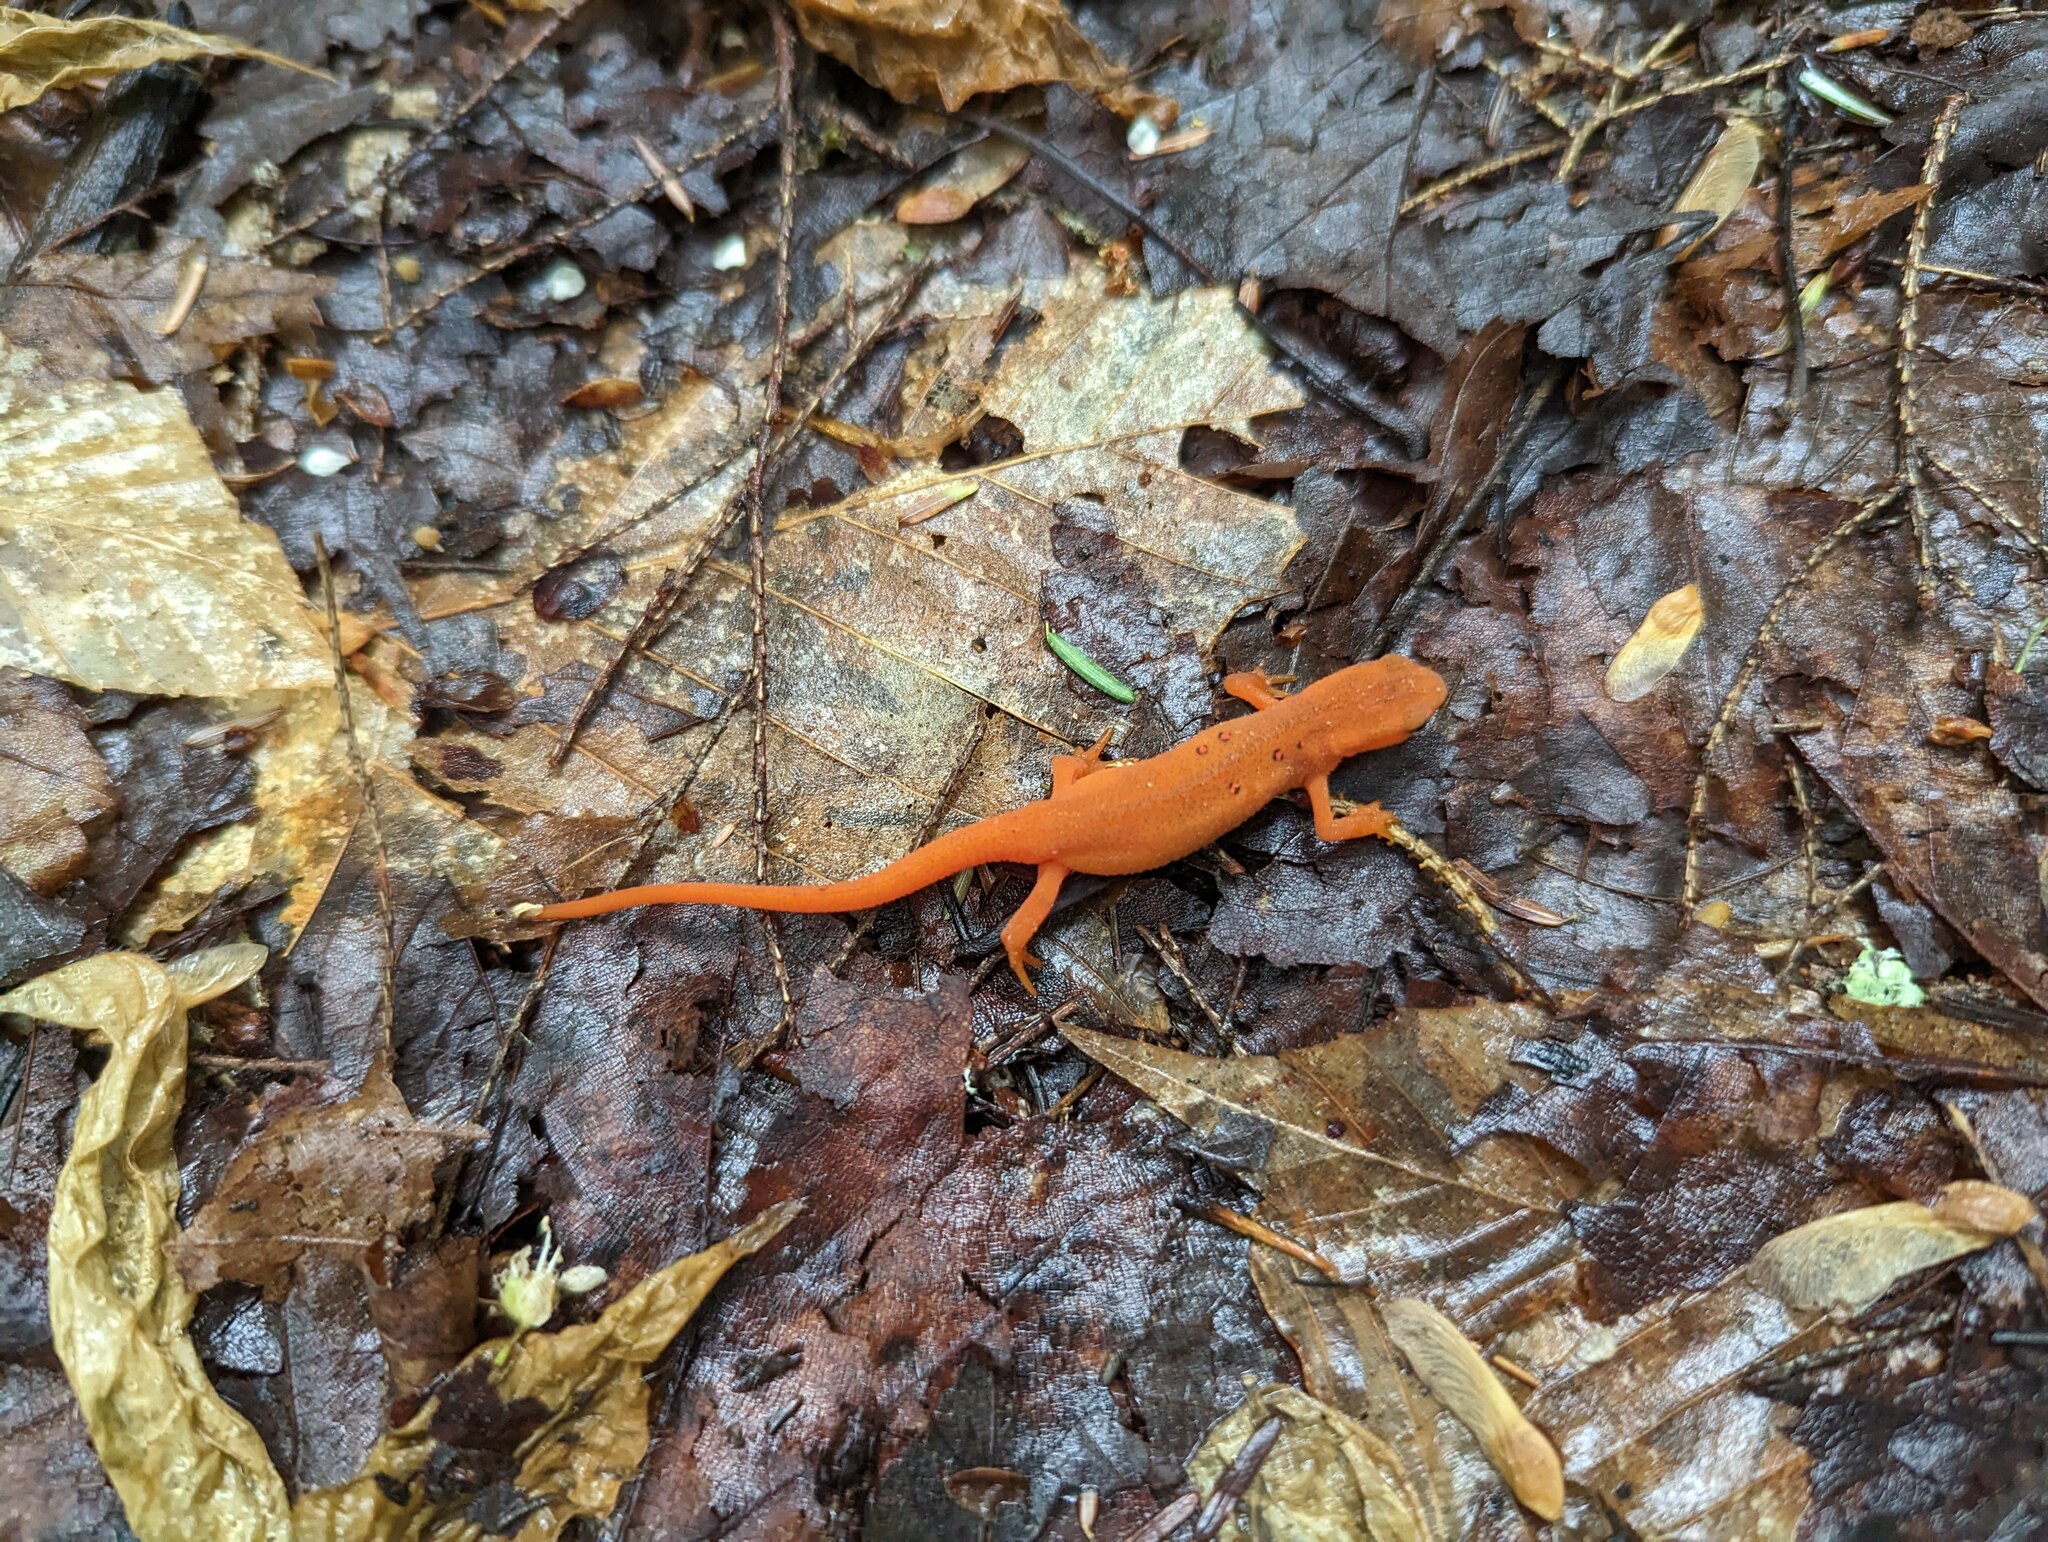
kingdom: Animalia
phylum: Chordata
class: Amphibia
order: Caudata
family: Salamandridae
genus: Notophthalmus
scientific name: Notophthalmus viridescens
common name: Eastern newt
